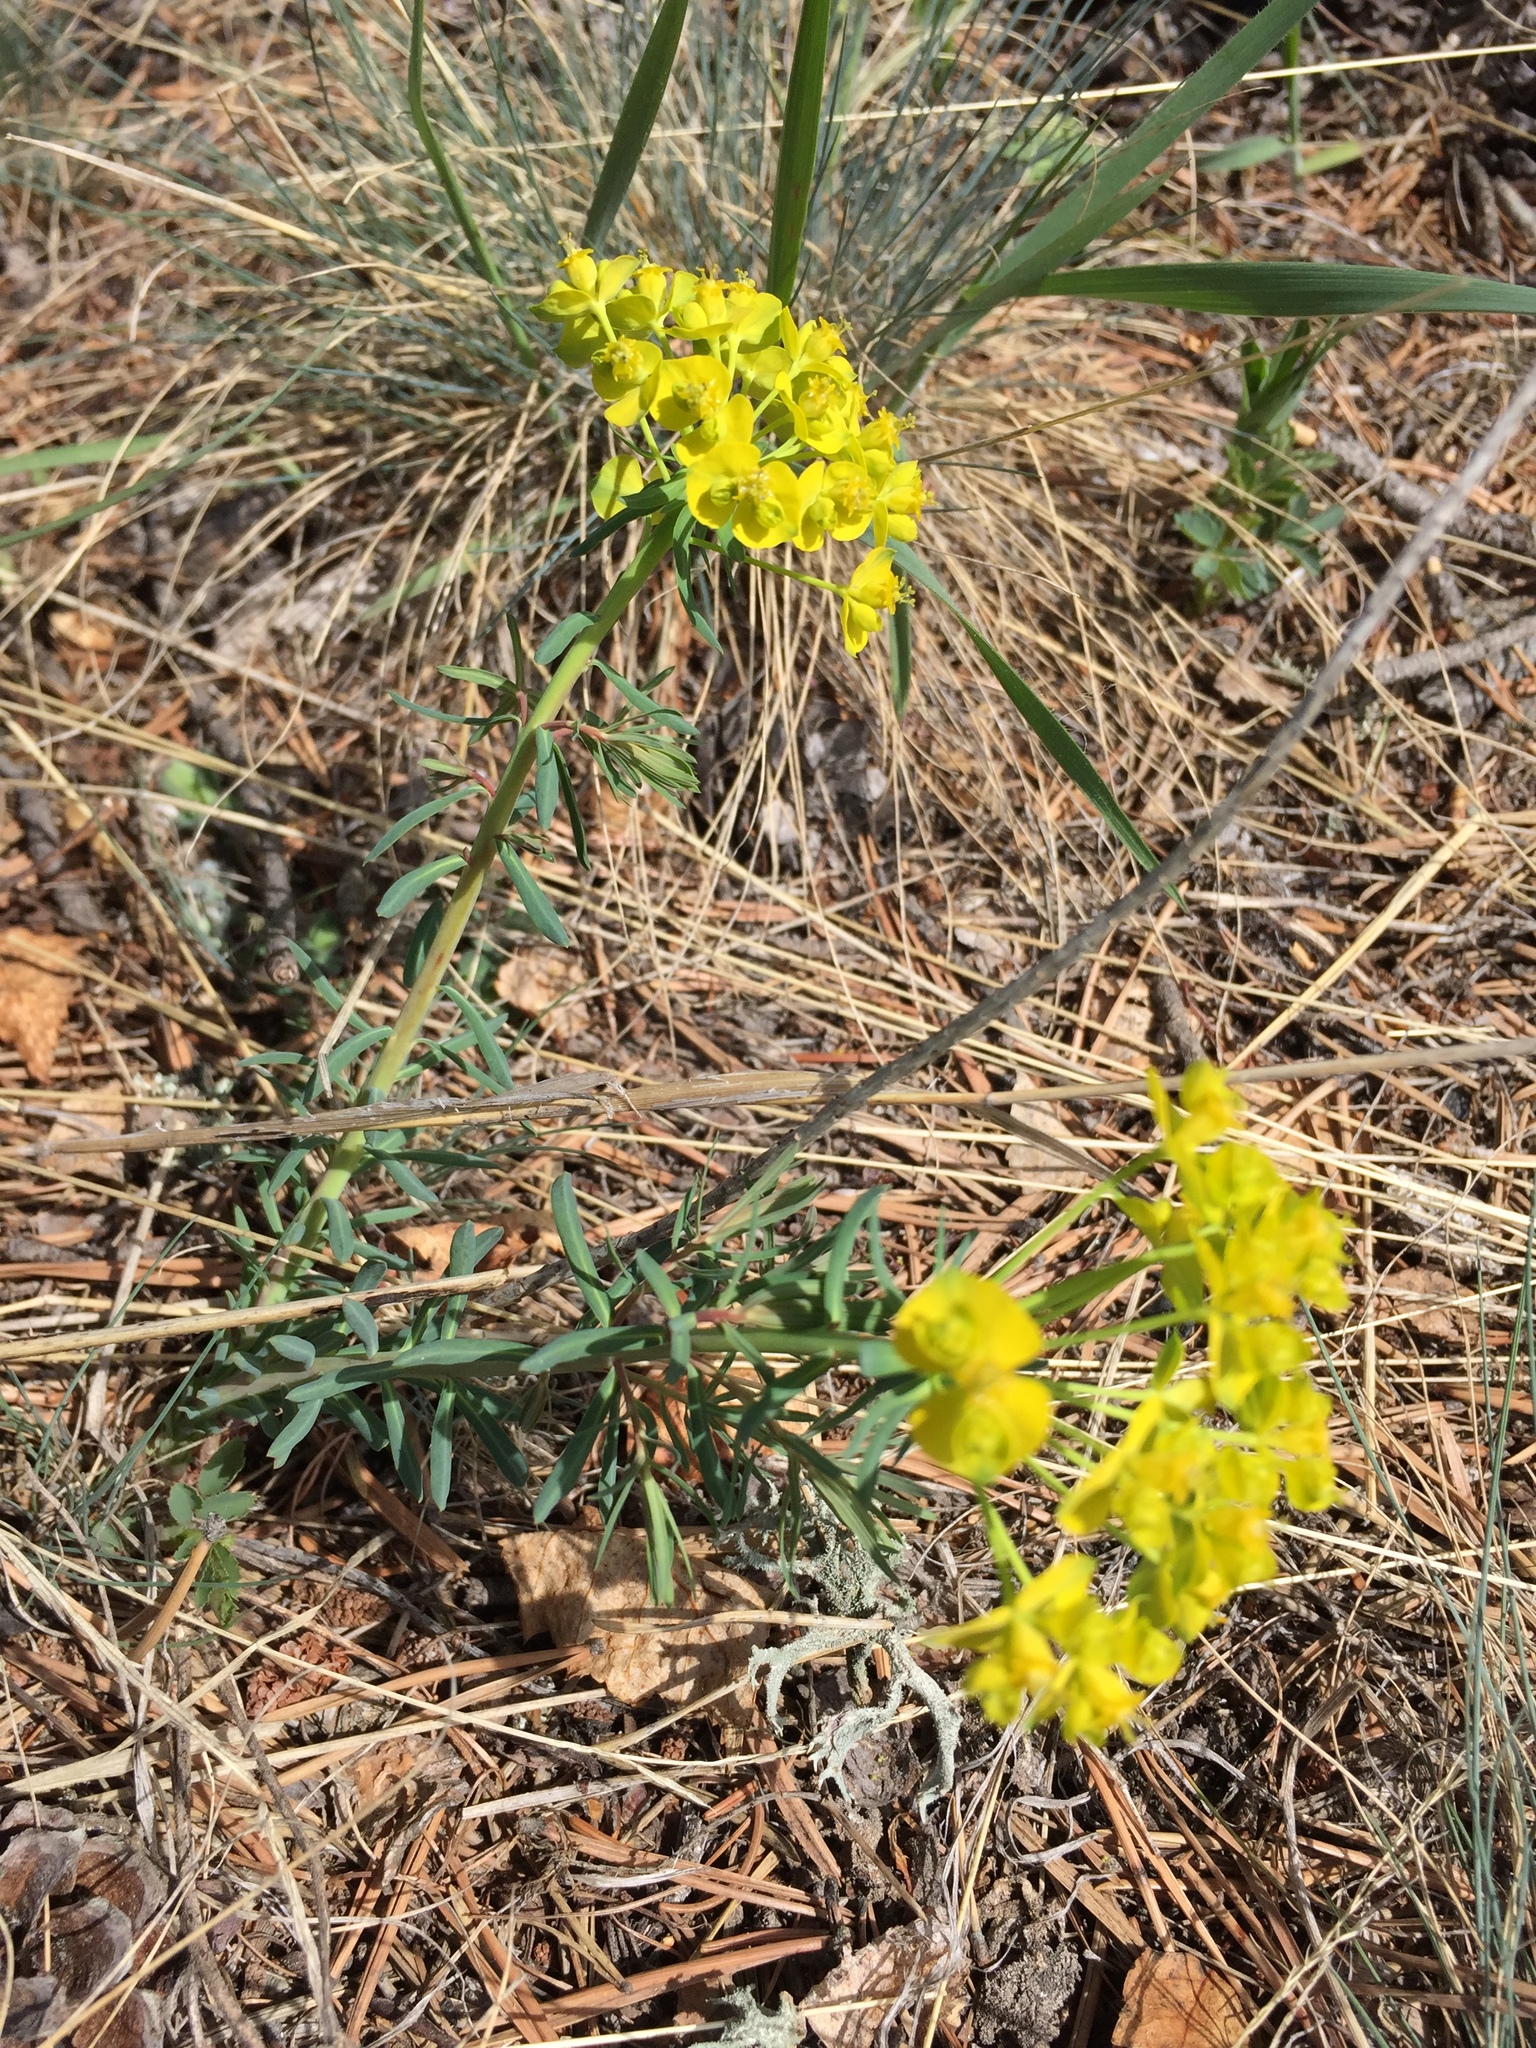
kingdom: Plantae
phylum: Tracheophyta
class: Magnoliopsida
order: Malpighiales
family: Euphorbiaceae
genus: Euphorbia
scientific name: Euphorbia seguieriana
